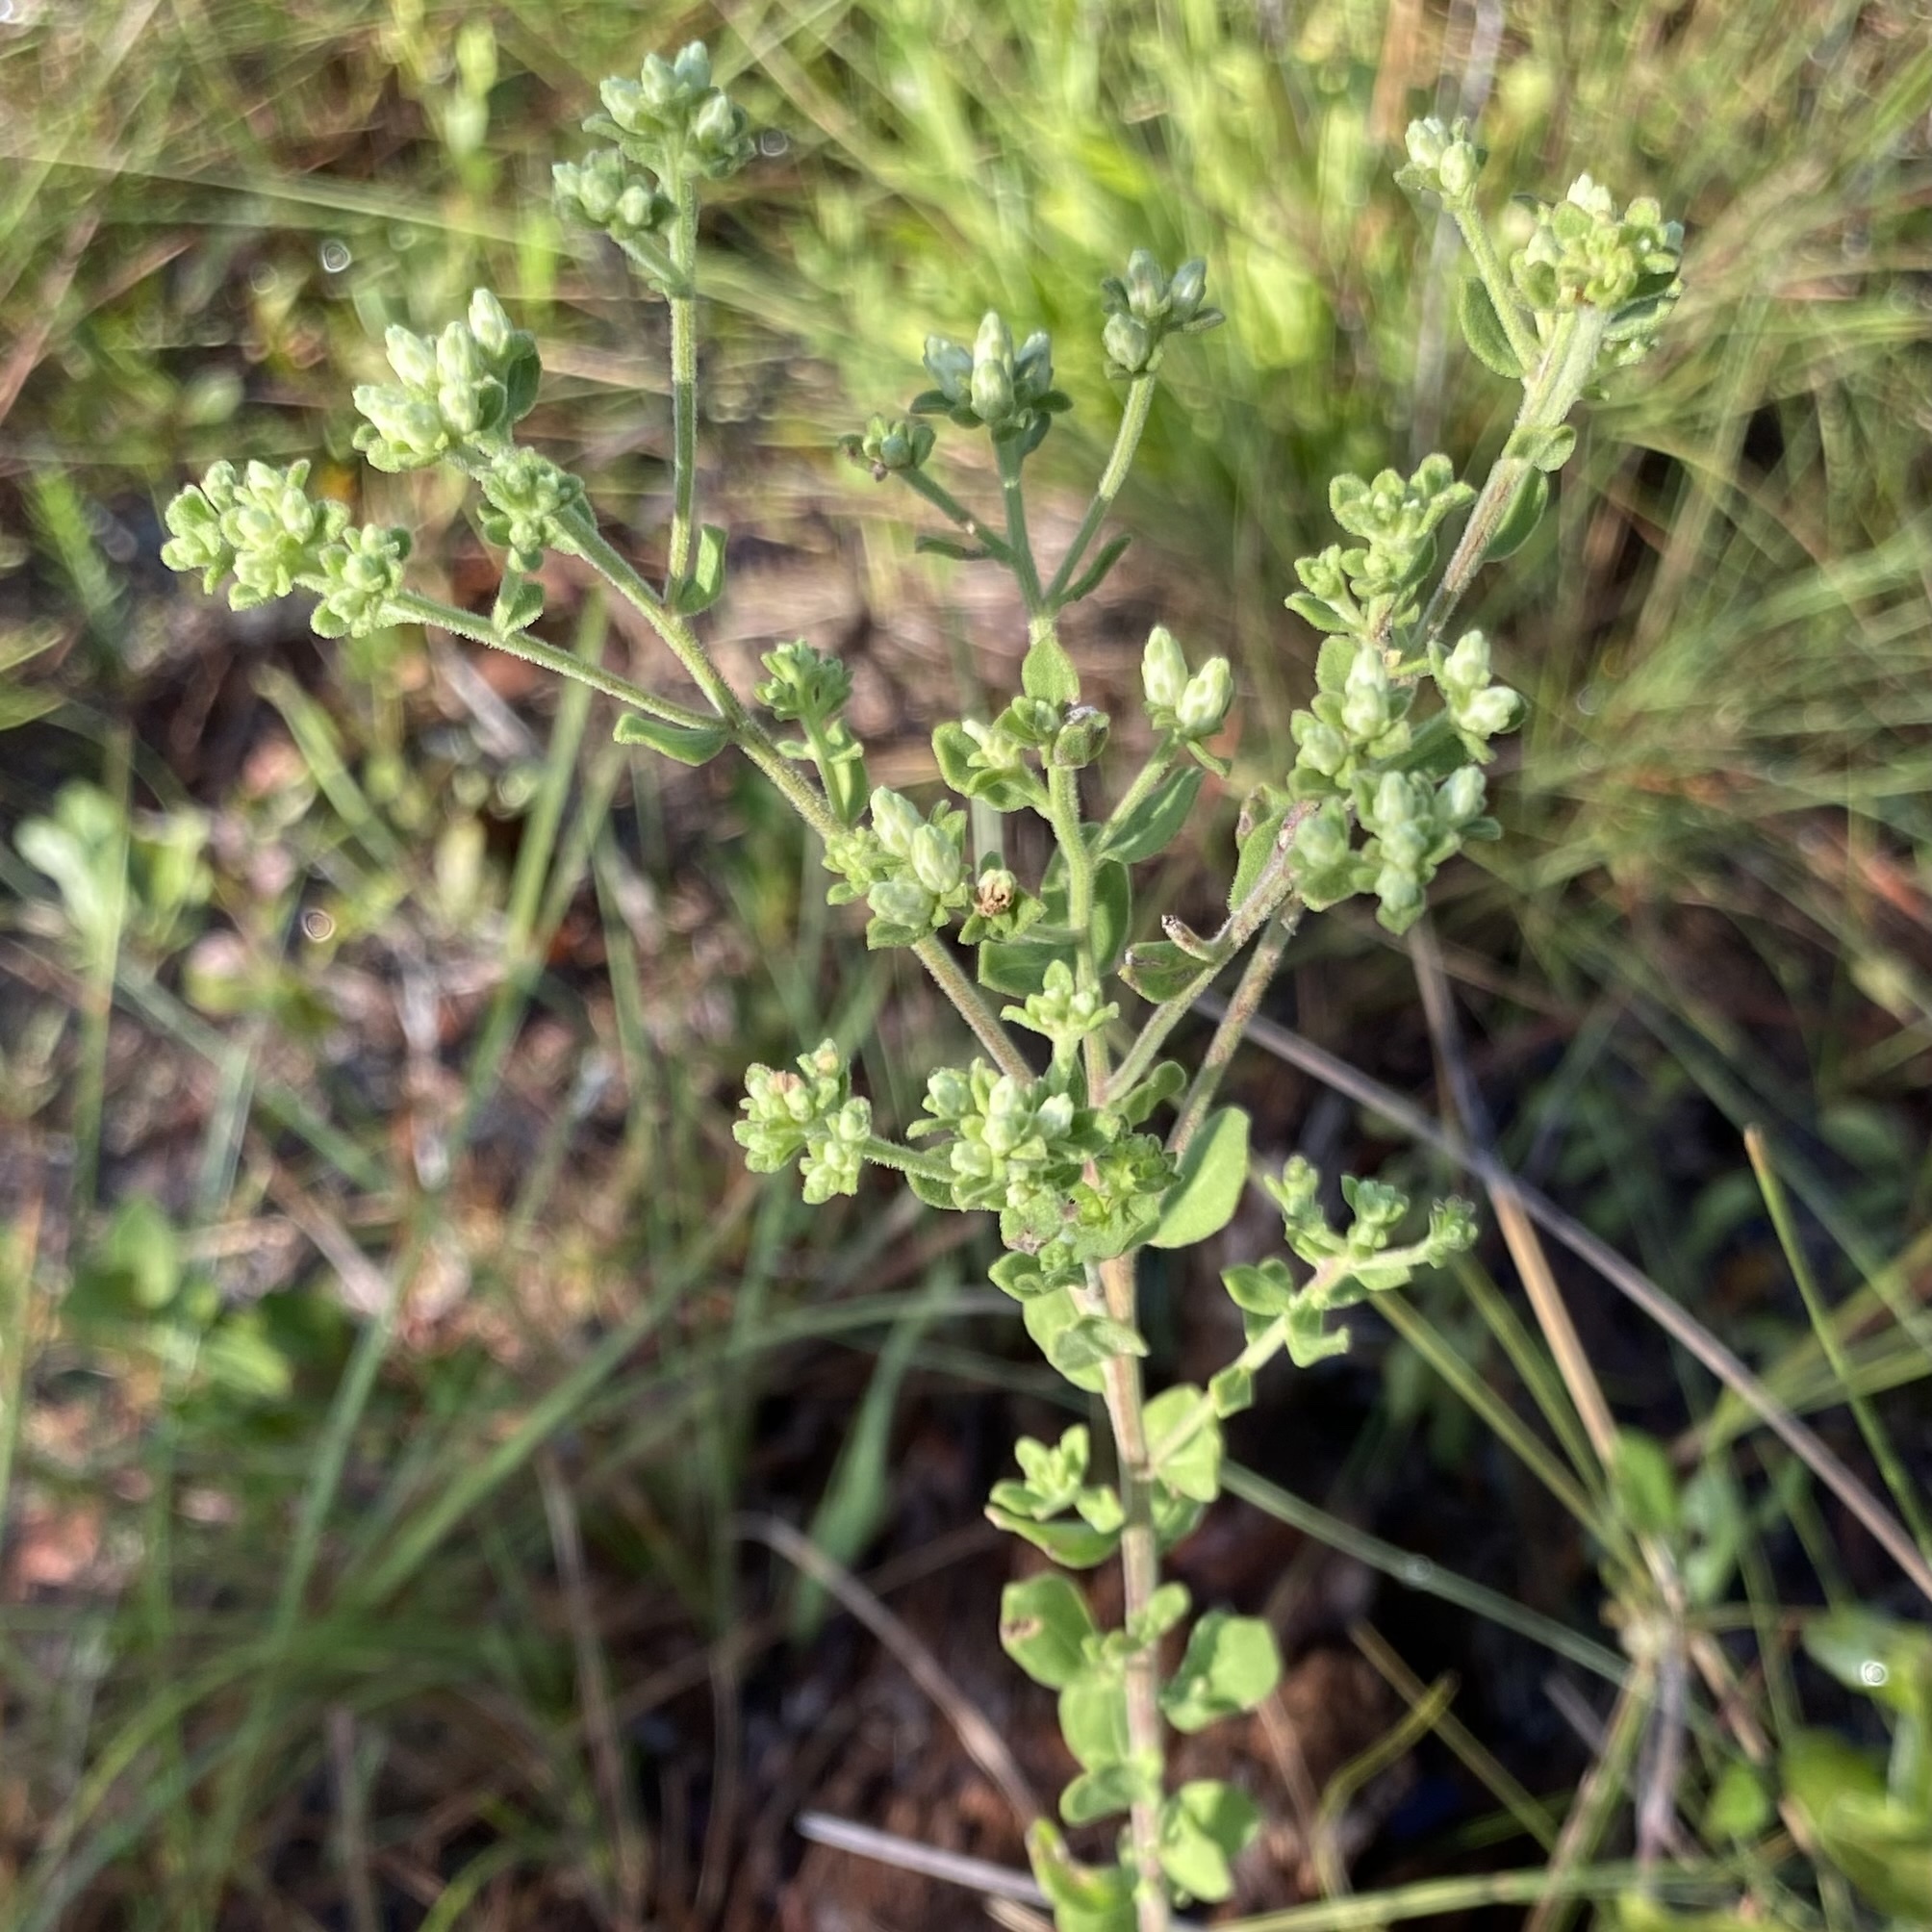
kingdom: Plantae
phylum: Tracheophyta
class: Magnoliopsida
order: Asterales
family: Asteraceae
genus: Sericocarpus
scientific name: Sericocarpus tortifolius
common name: Dixie aster
